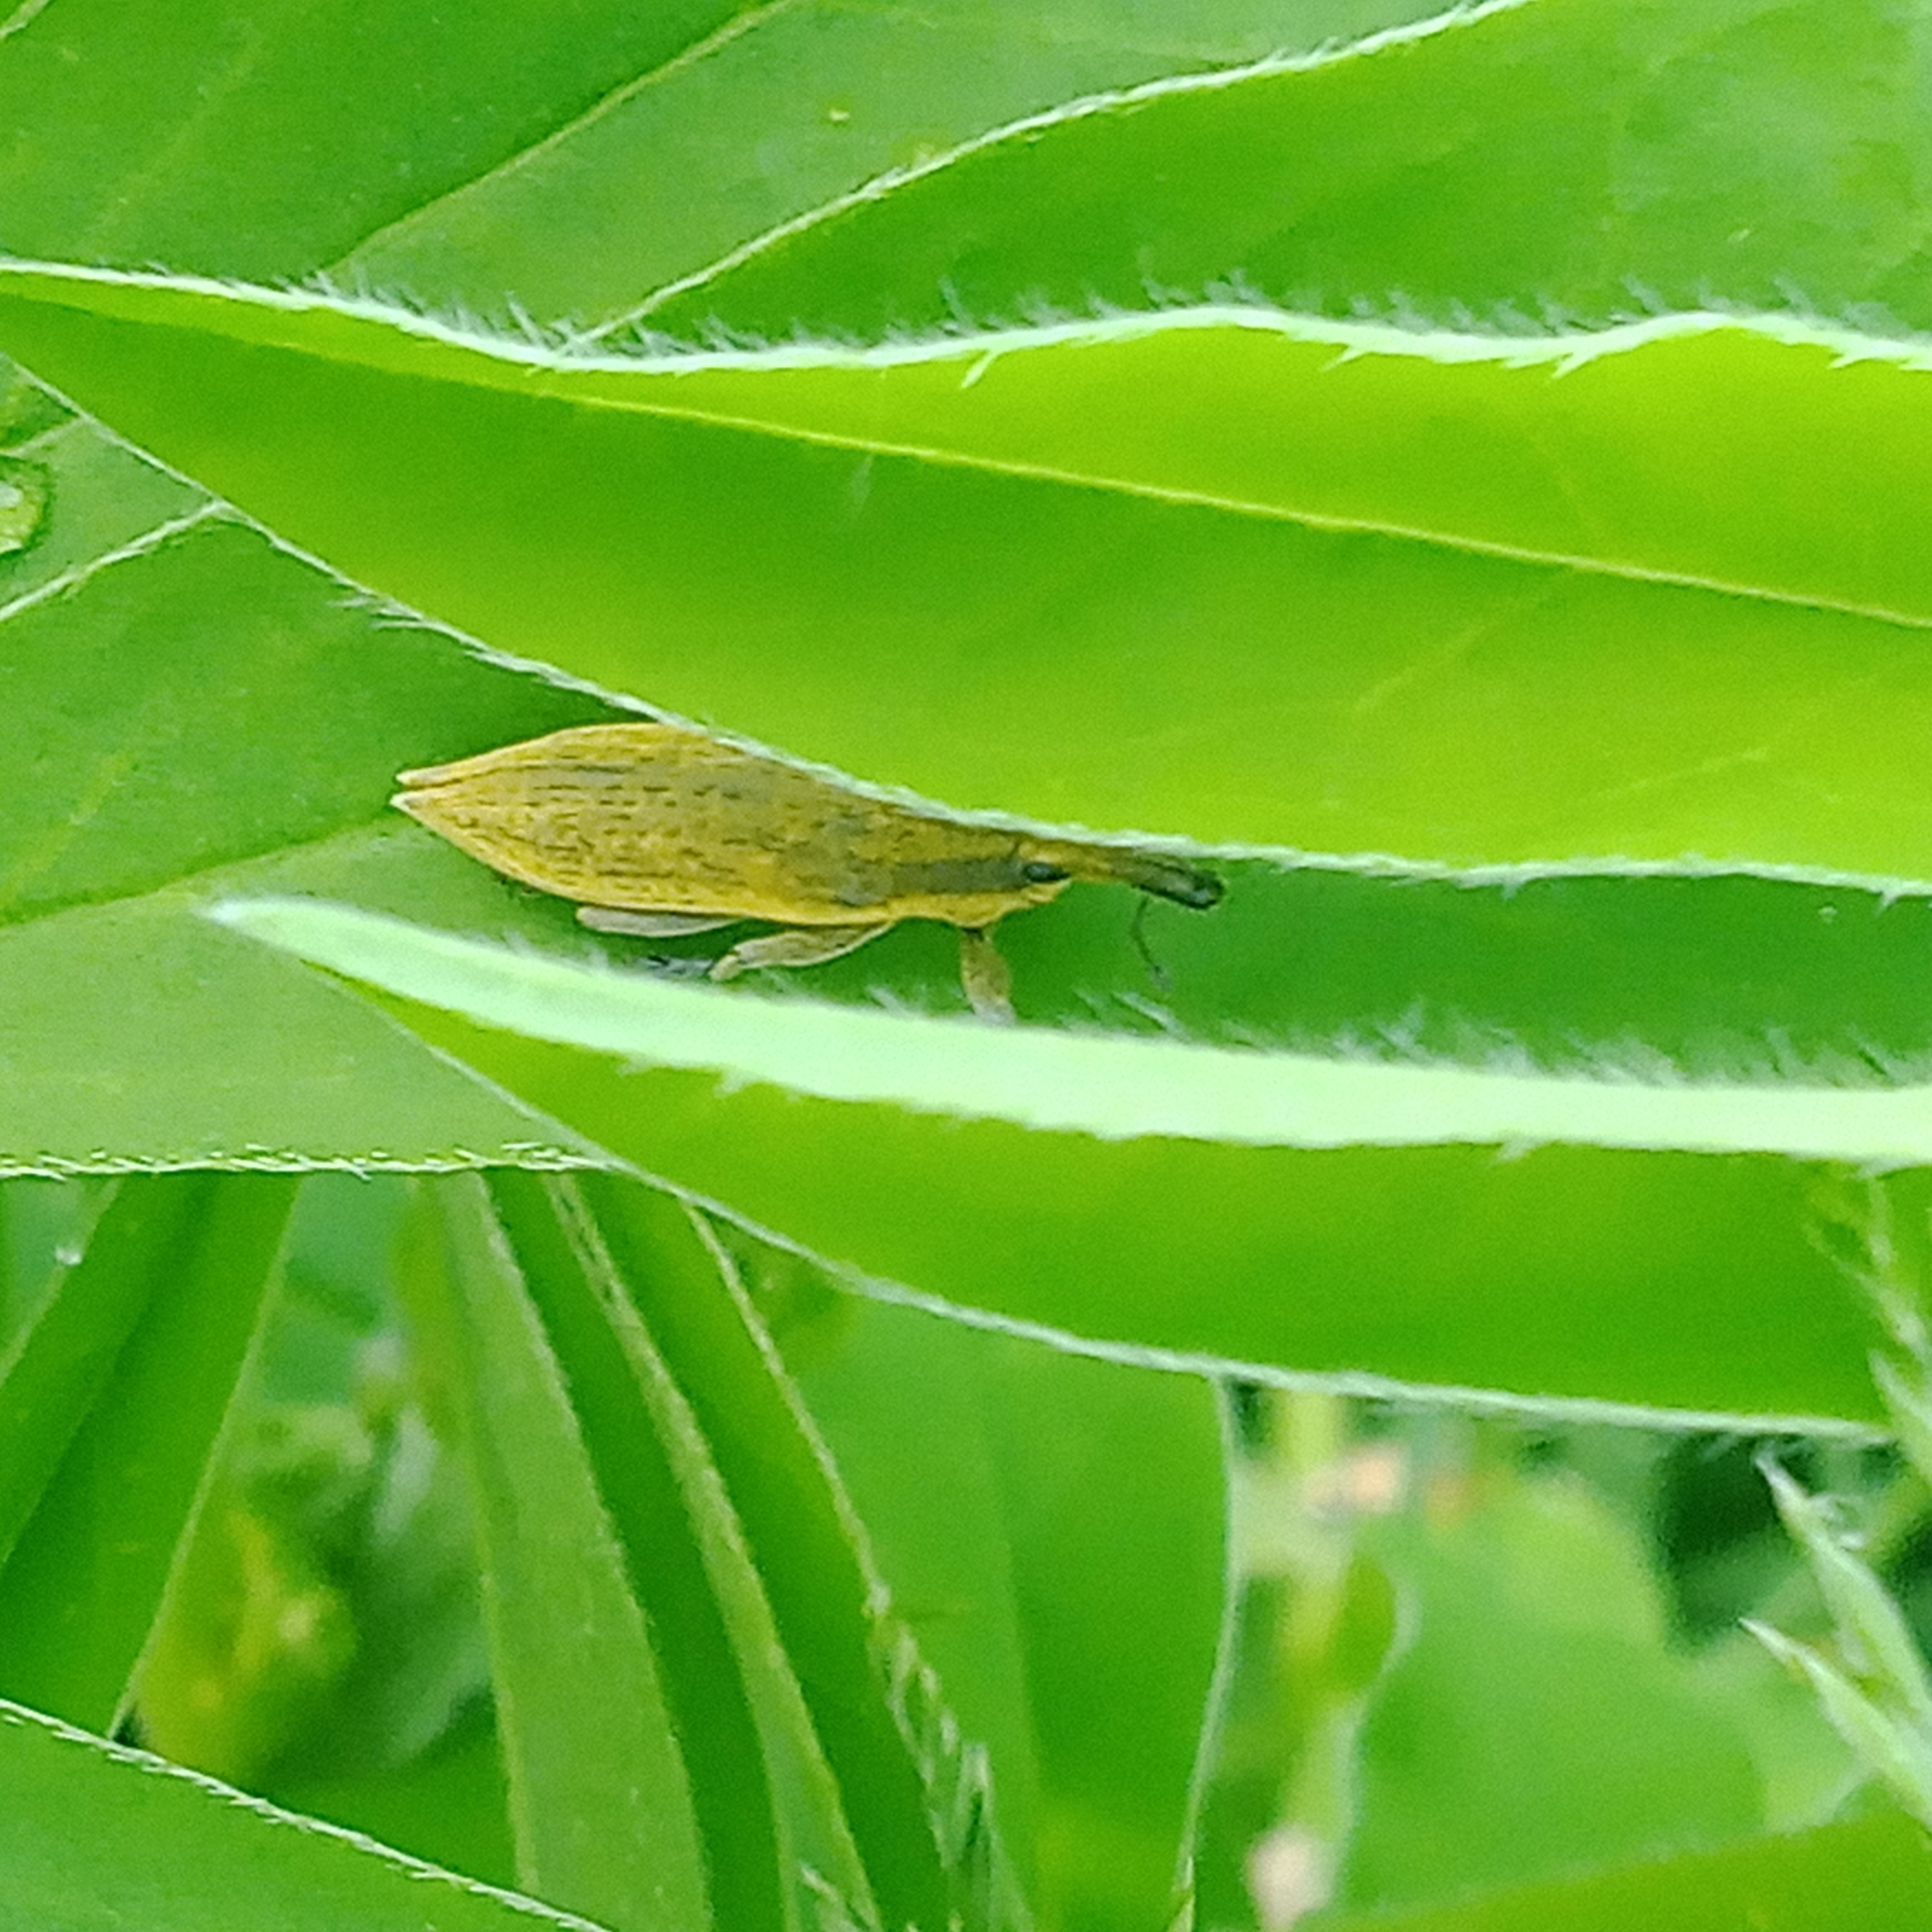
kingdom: Animalia
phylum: Arthropoda
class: Insecta
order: Coleoptera
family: Curculionidae
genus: Lixus
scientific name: Lixus iridis
